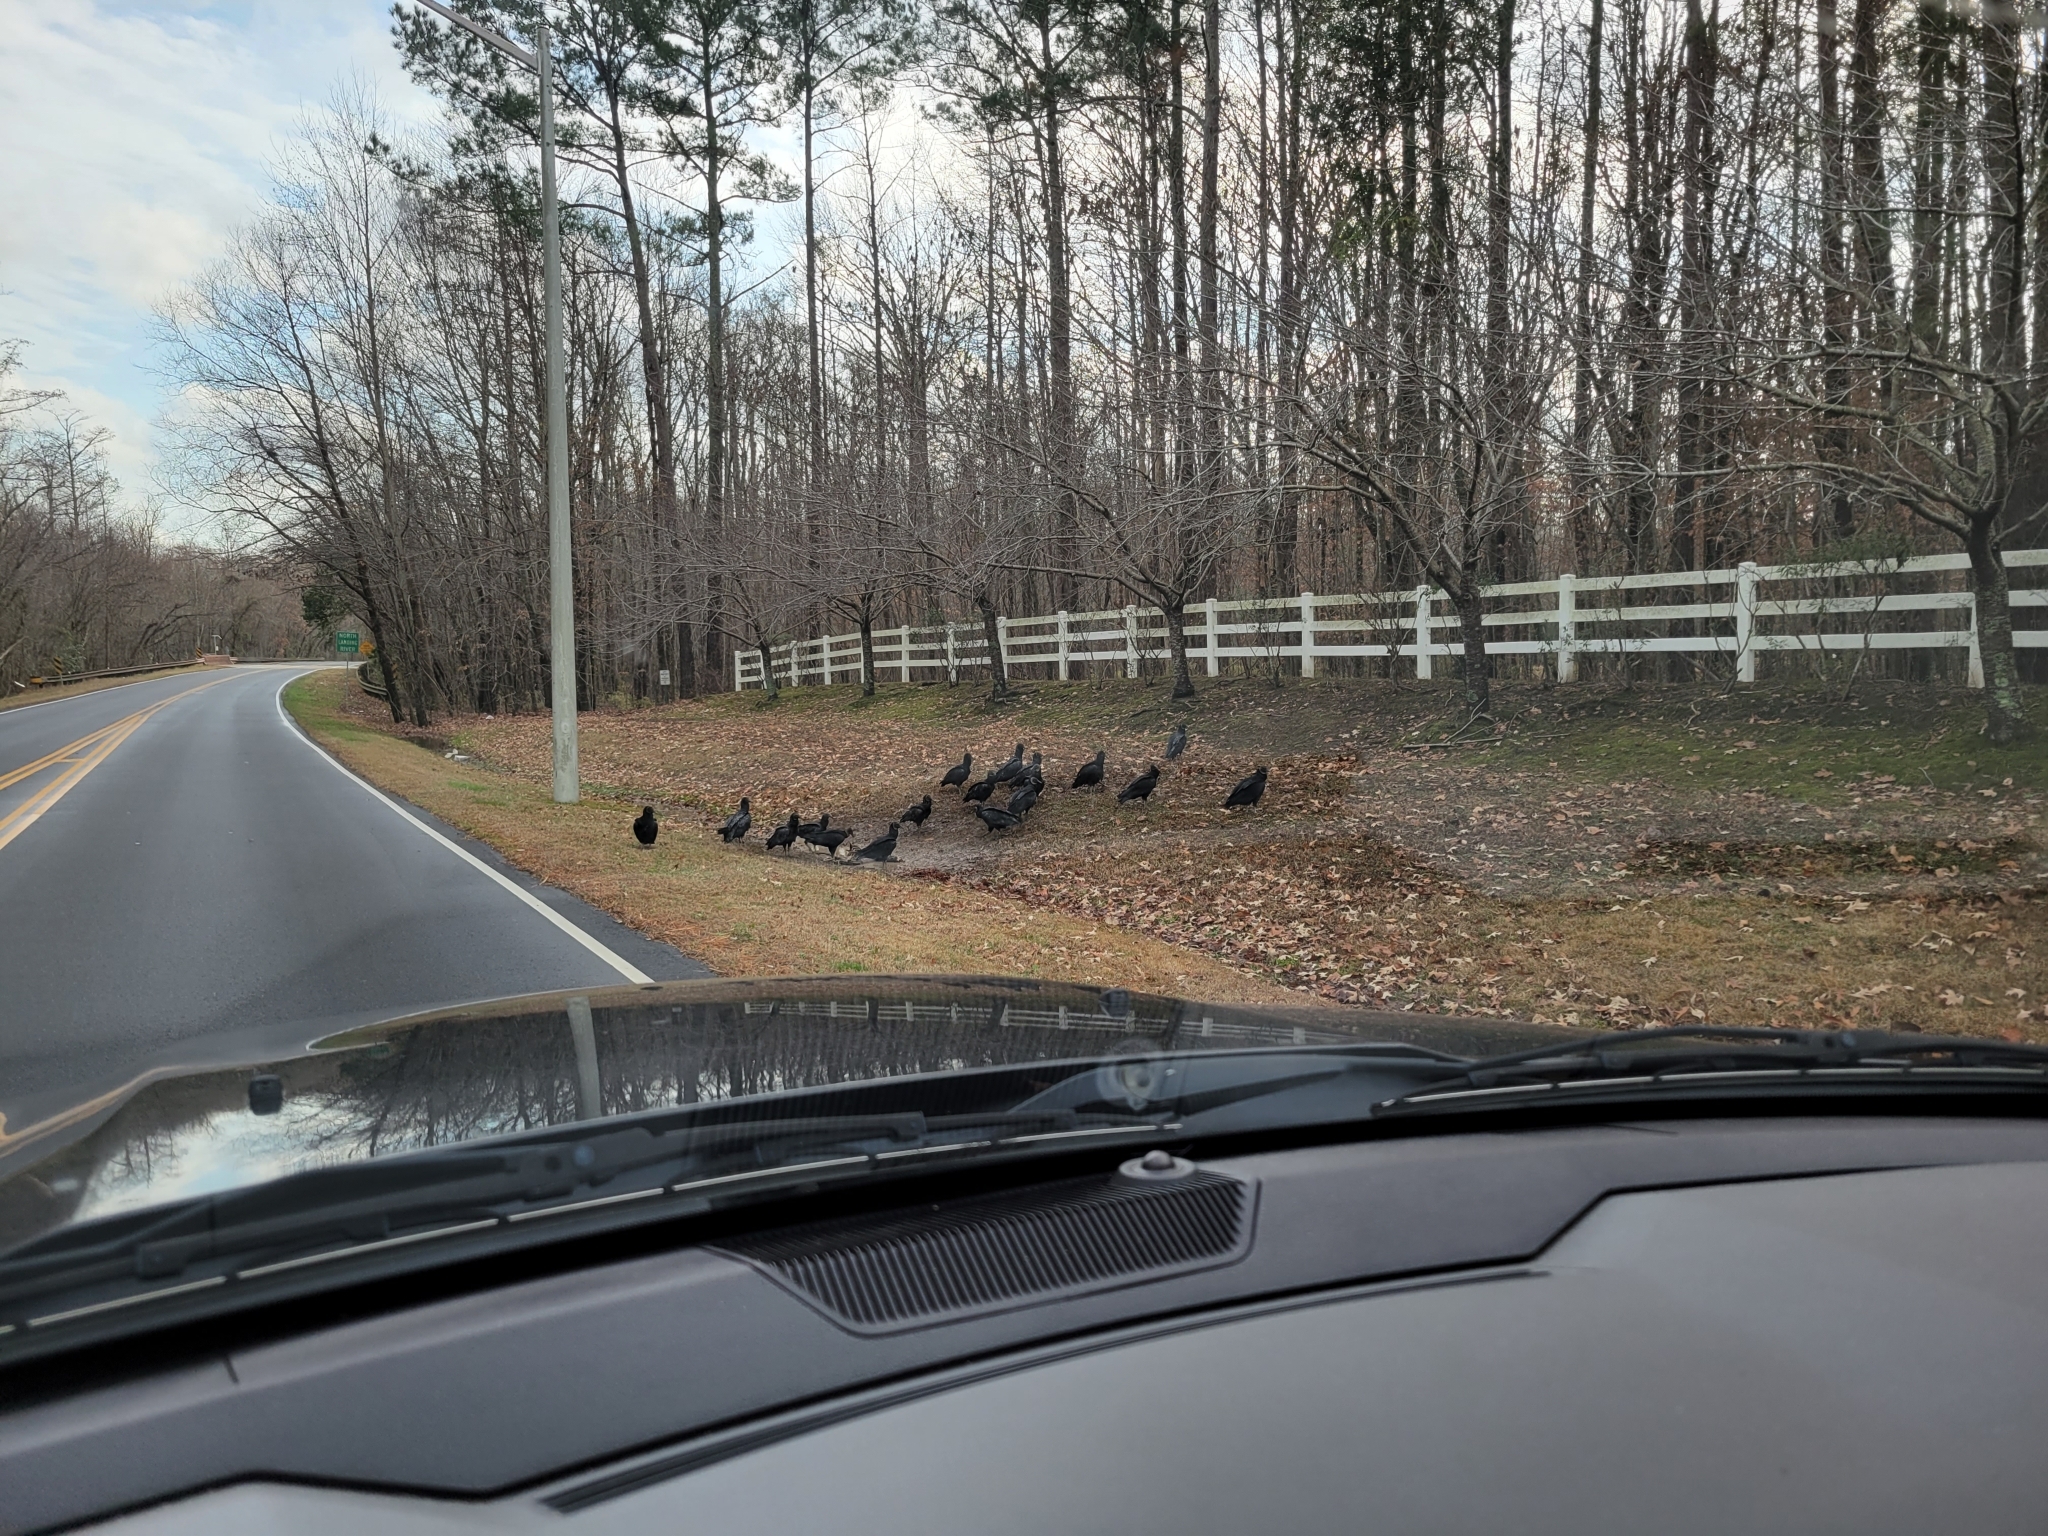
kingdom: Animalia
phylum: Chordata
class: Aves
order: Accipitriformes
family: Cathartidae
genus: Coragyps
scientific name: Coragyps atratus
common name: Black vulture
